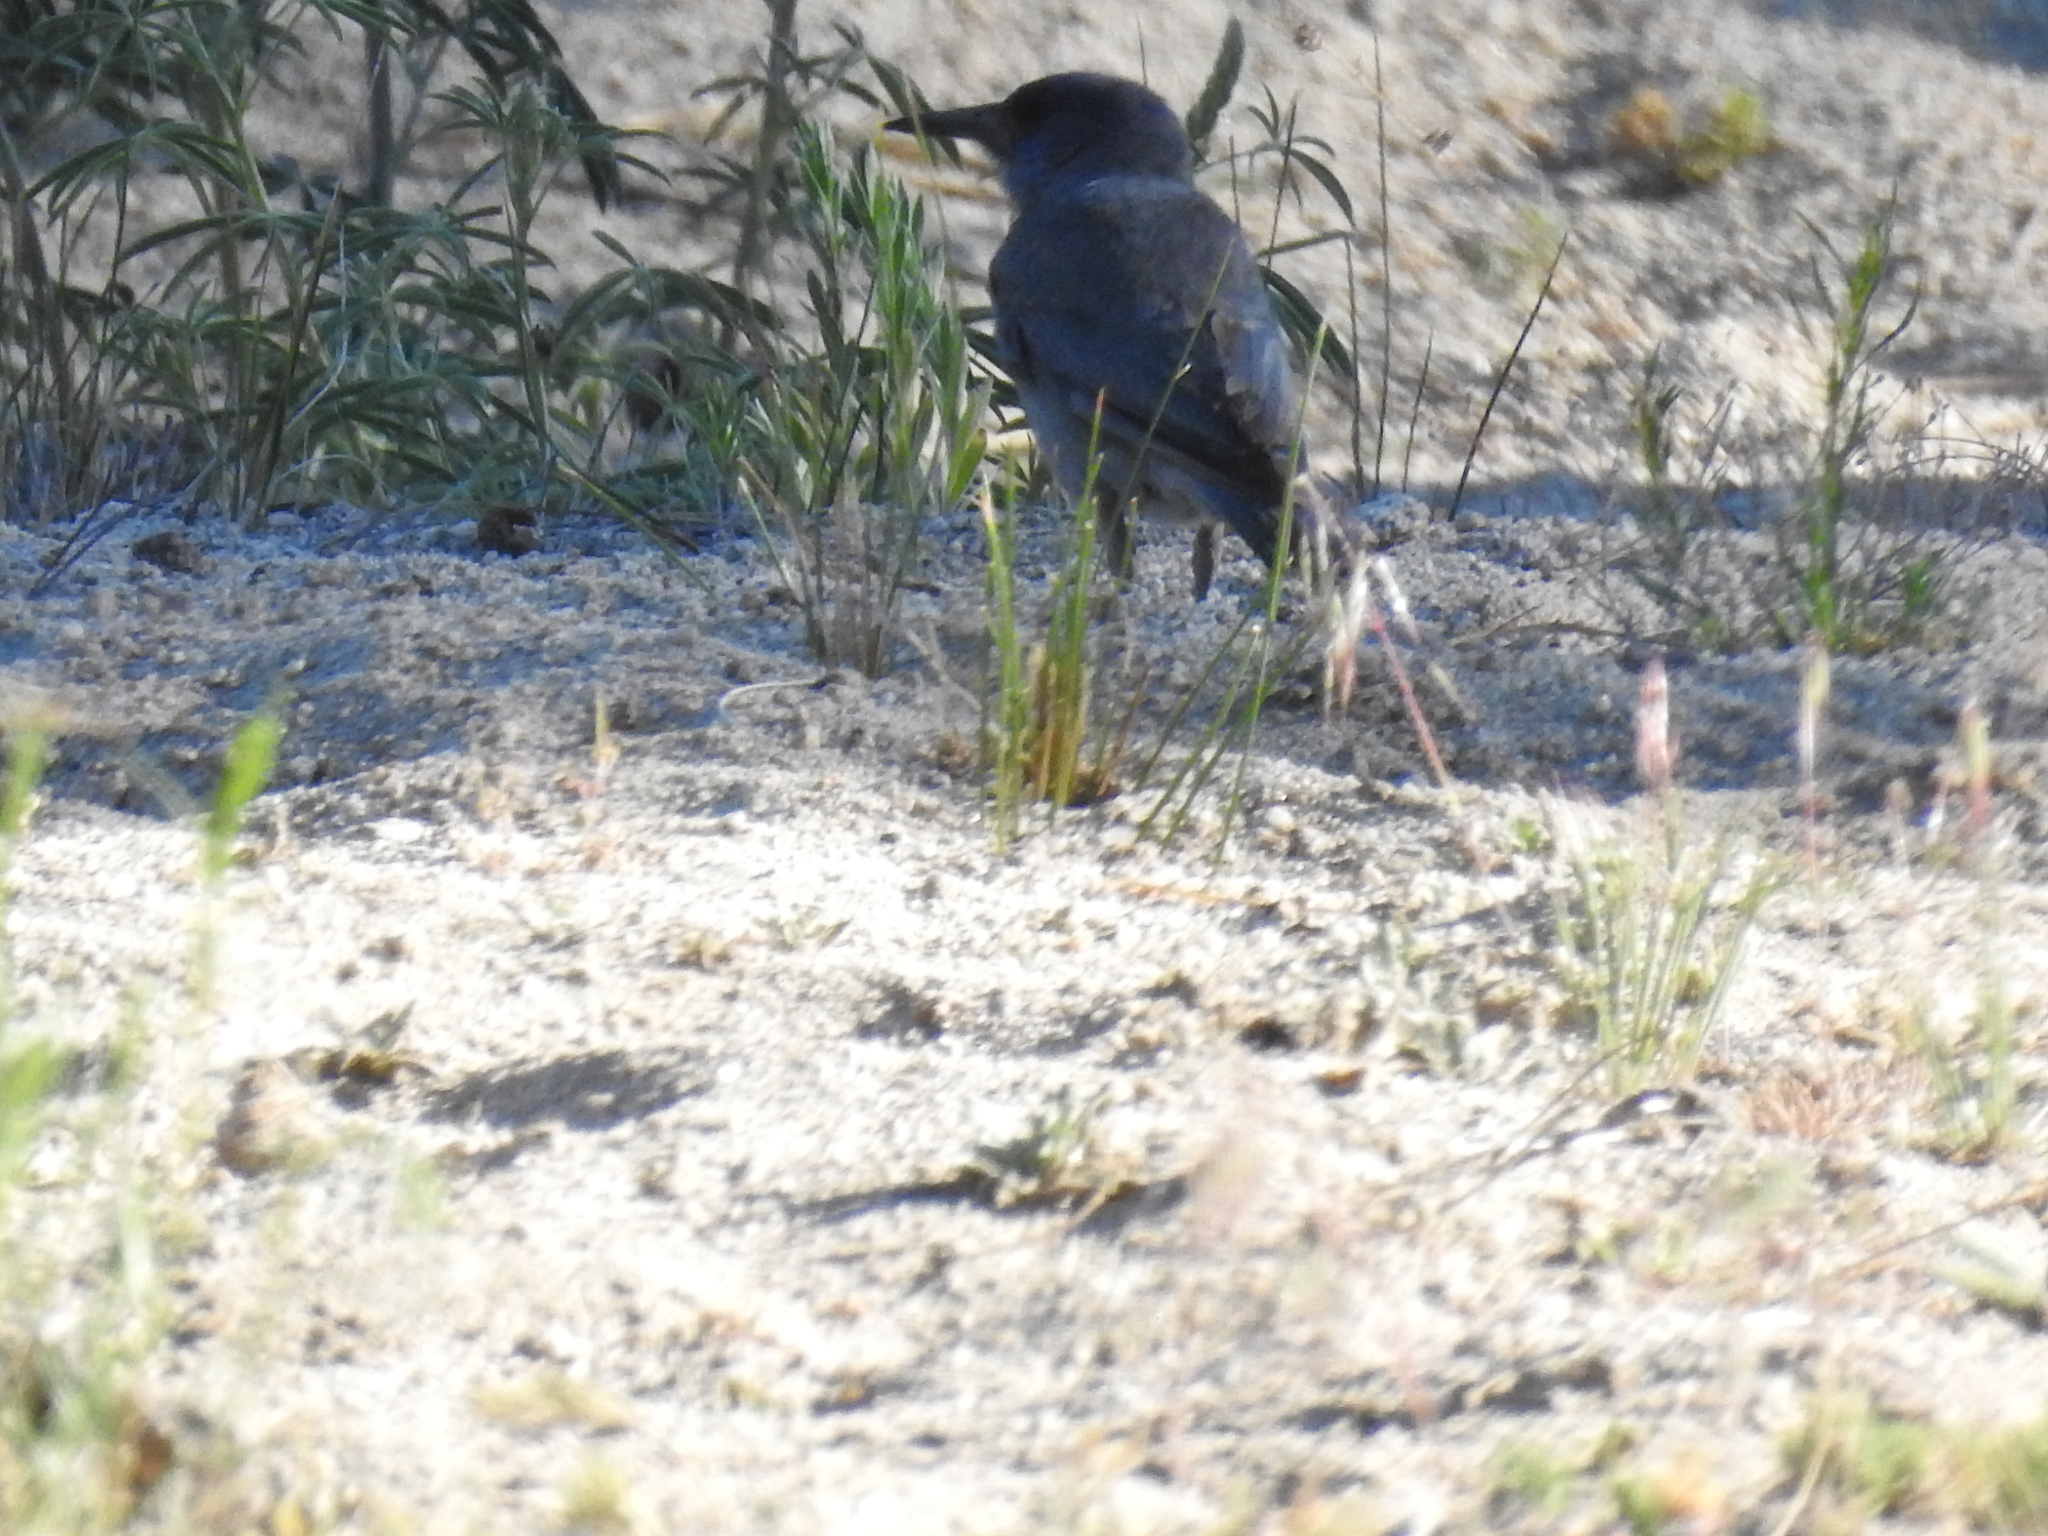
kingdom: Animalia
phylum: Chordata
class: Aves
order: Passeriformes
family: Corvidae
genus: Gymnorhinus
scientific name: Gymnorhinus cyanocephalus
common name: Pinyon jay
